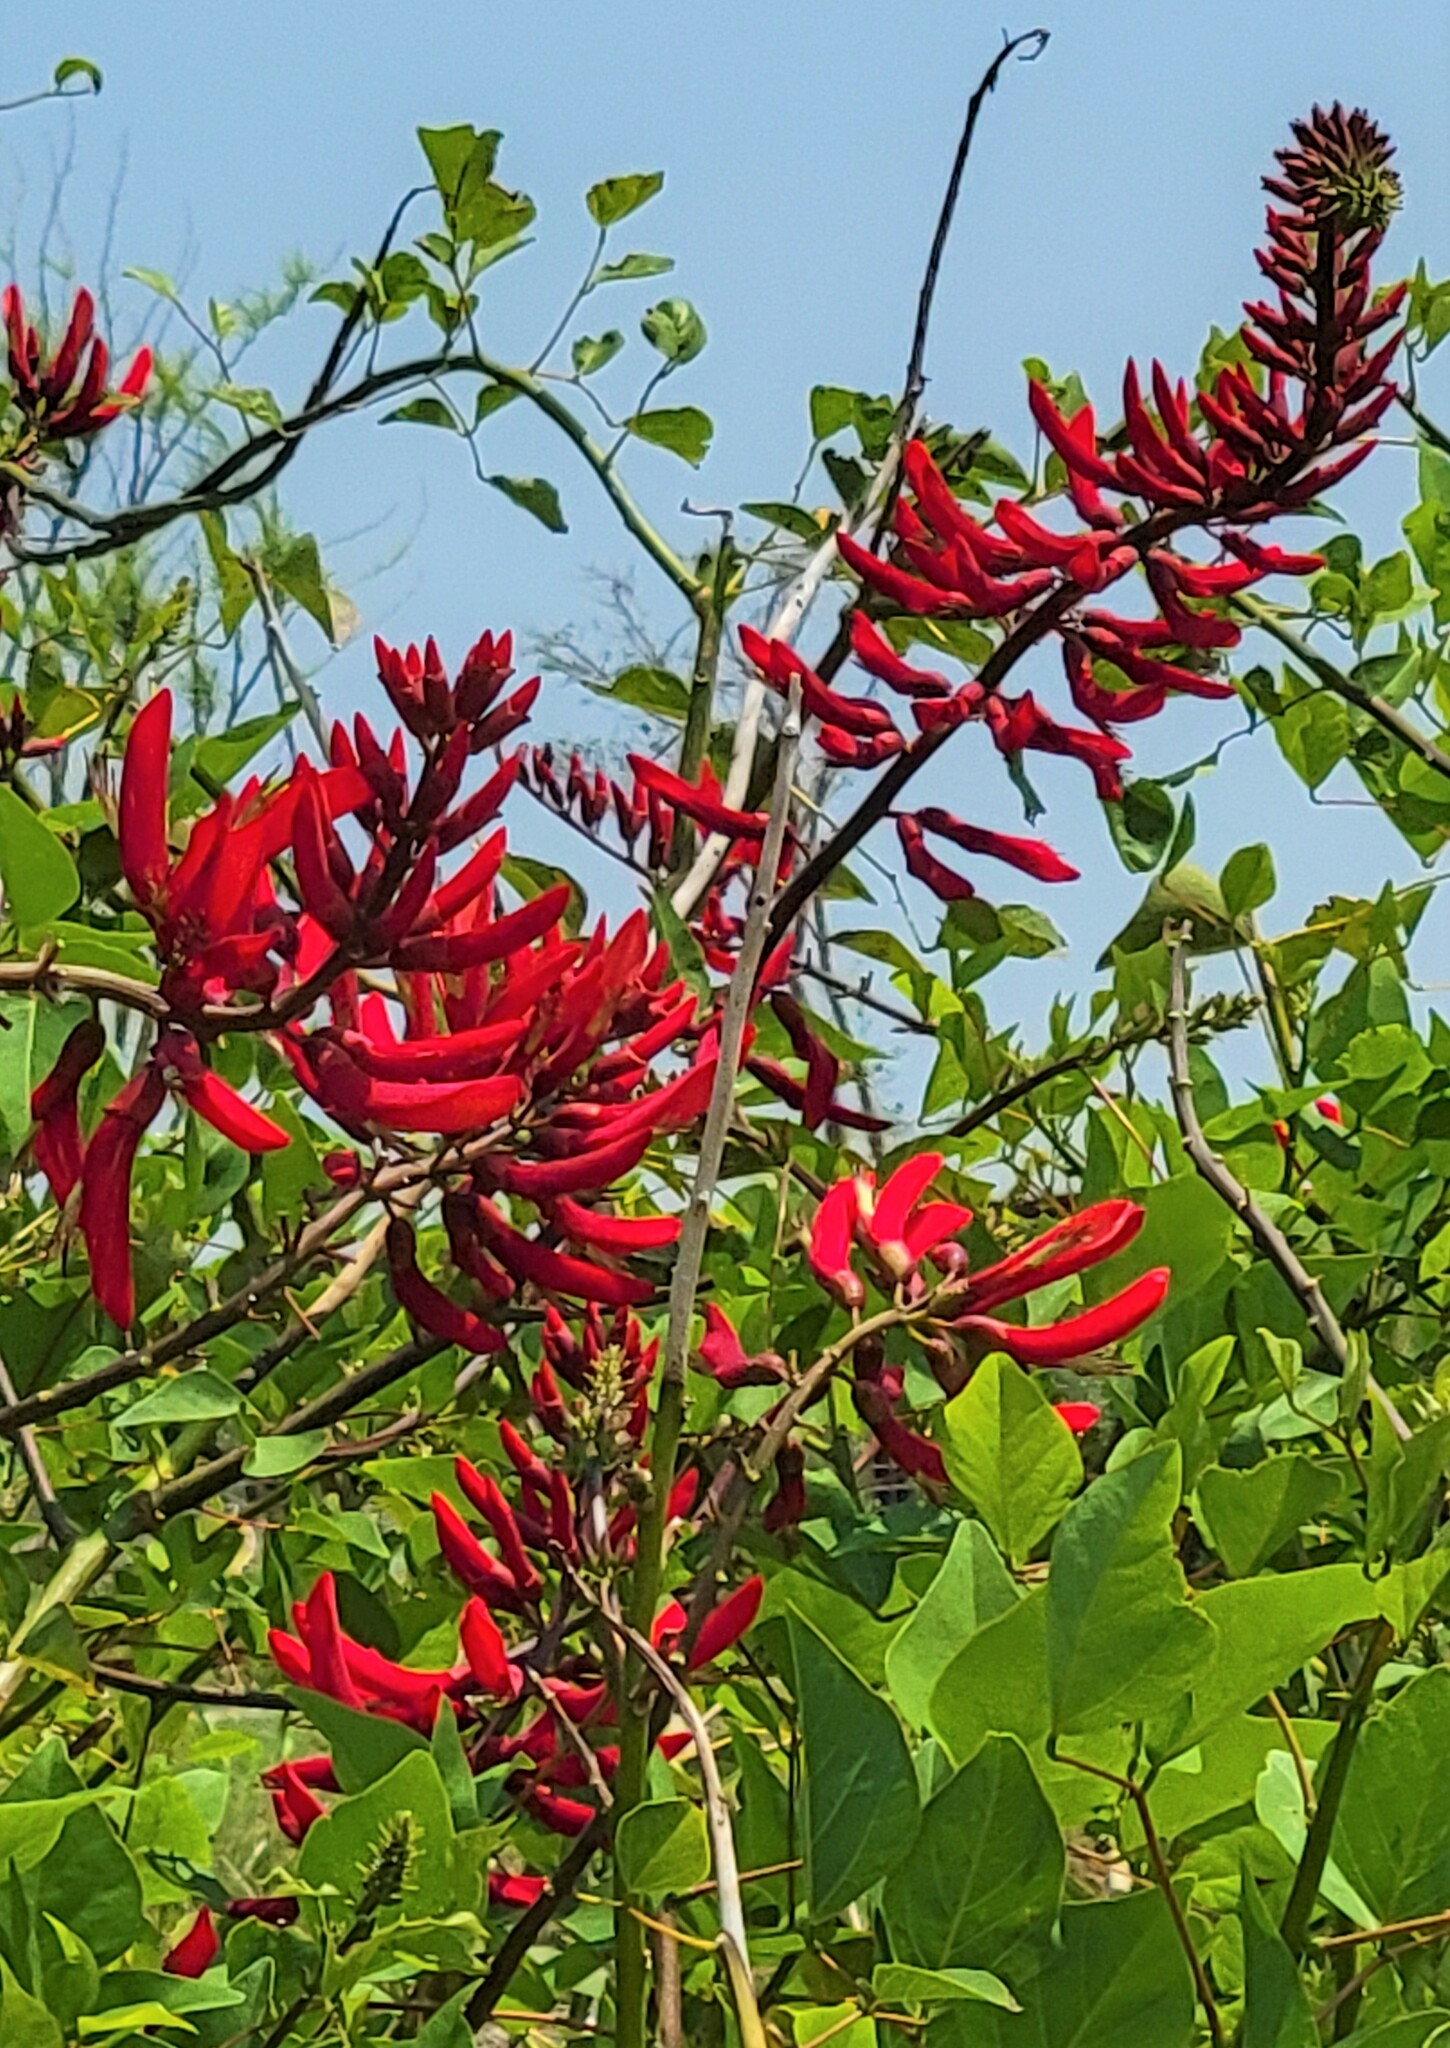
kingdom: Plantae
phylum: Tracheophyta
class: Magnoliopsida
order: Fabales
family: Fabaceae
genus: Erythrina
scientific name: Erythrina herbacea
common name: Coral-bean
